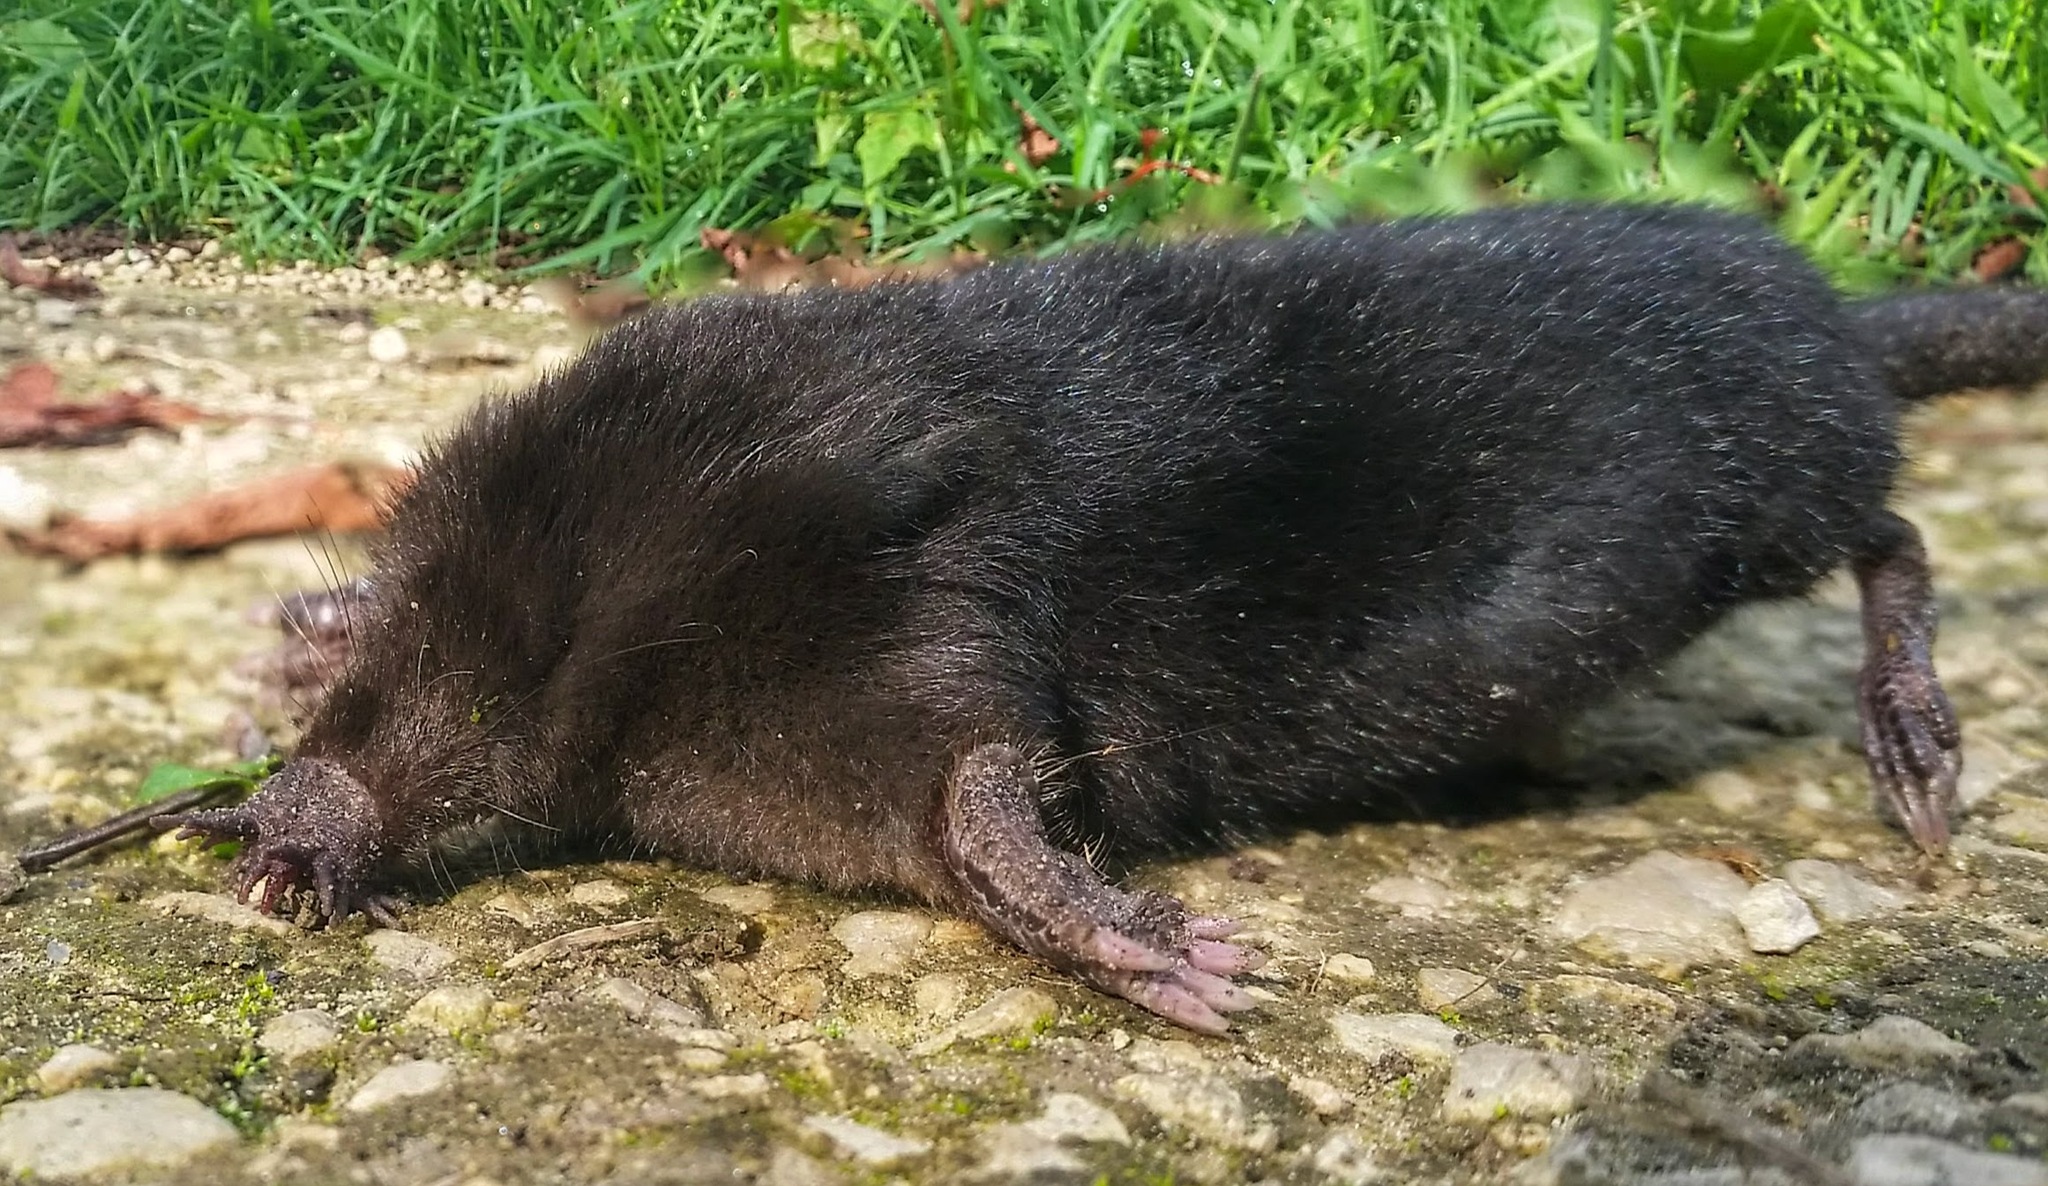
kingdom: Animalia
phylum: Chordata
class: Mammalia
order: Soricomorpha
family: Talpidae
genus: Condylura
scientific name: Condylura cristata
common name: Star-nosed mole
